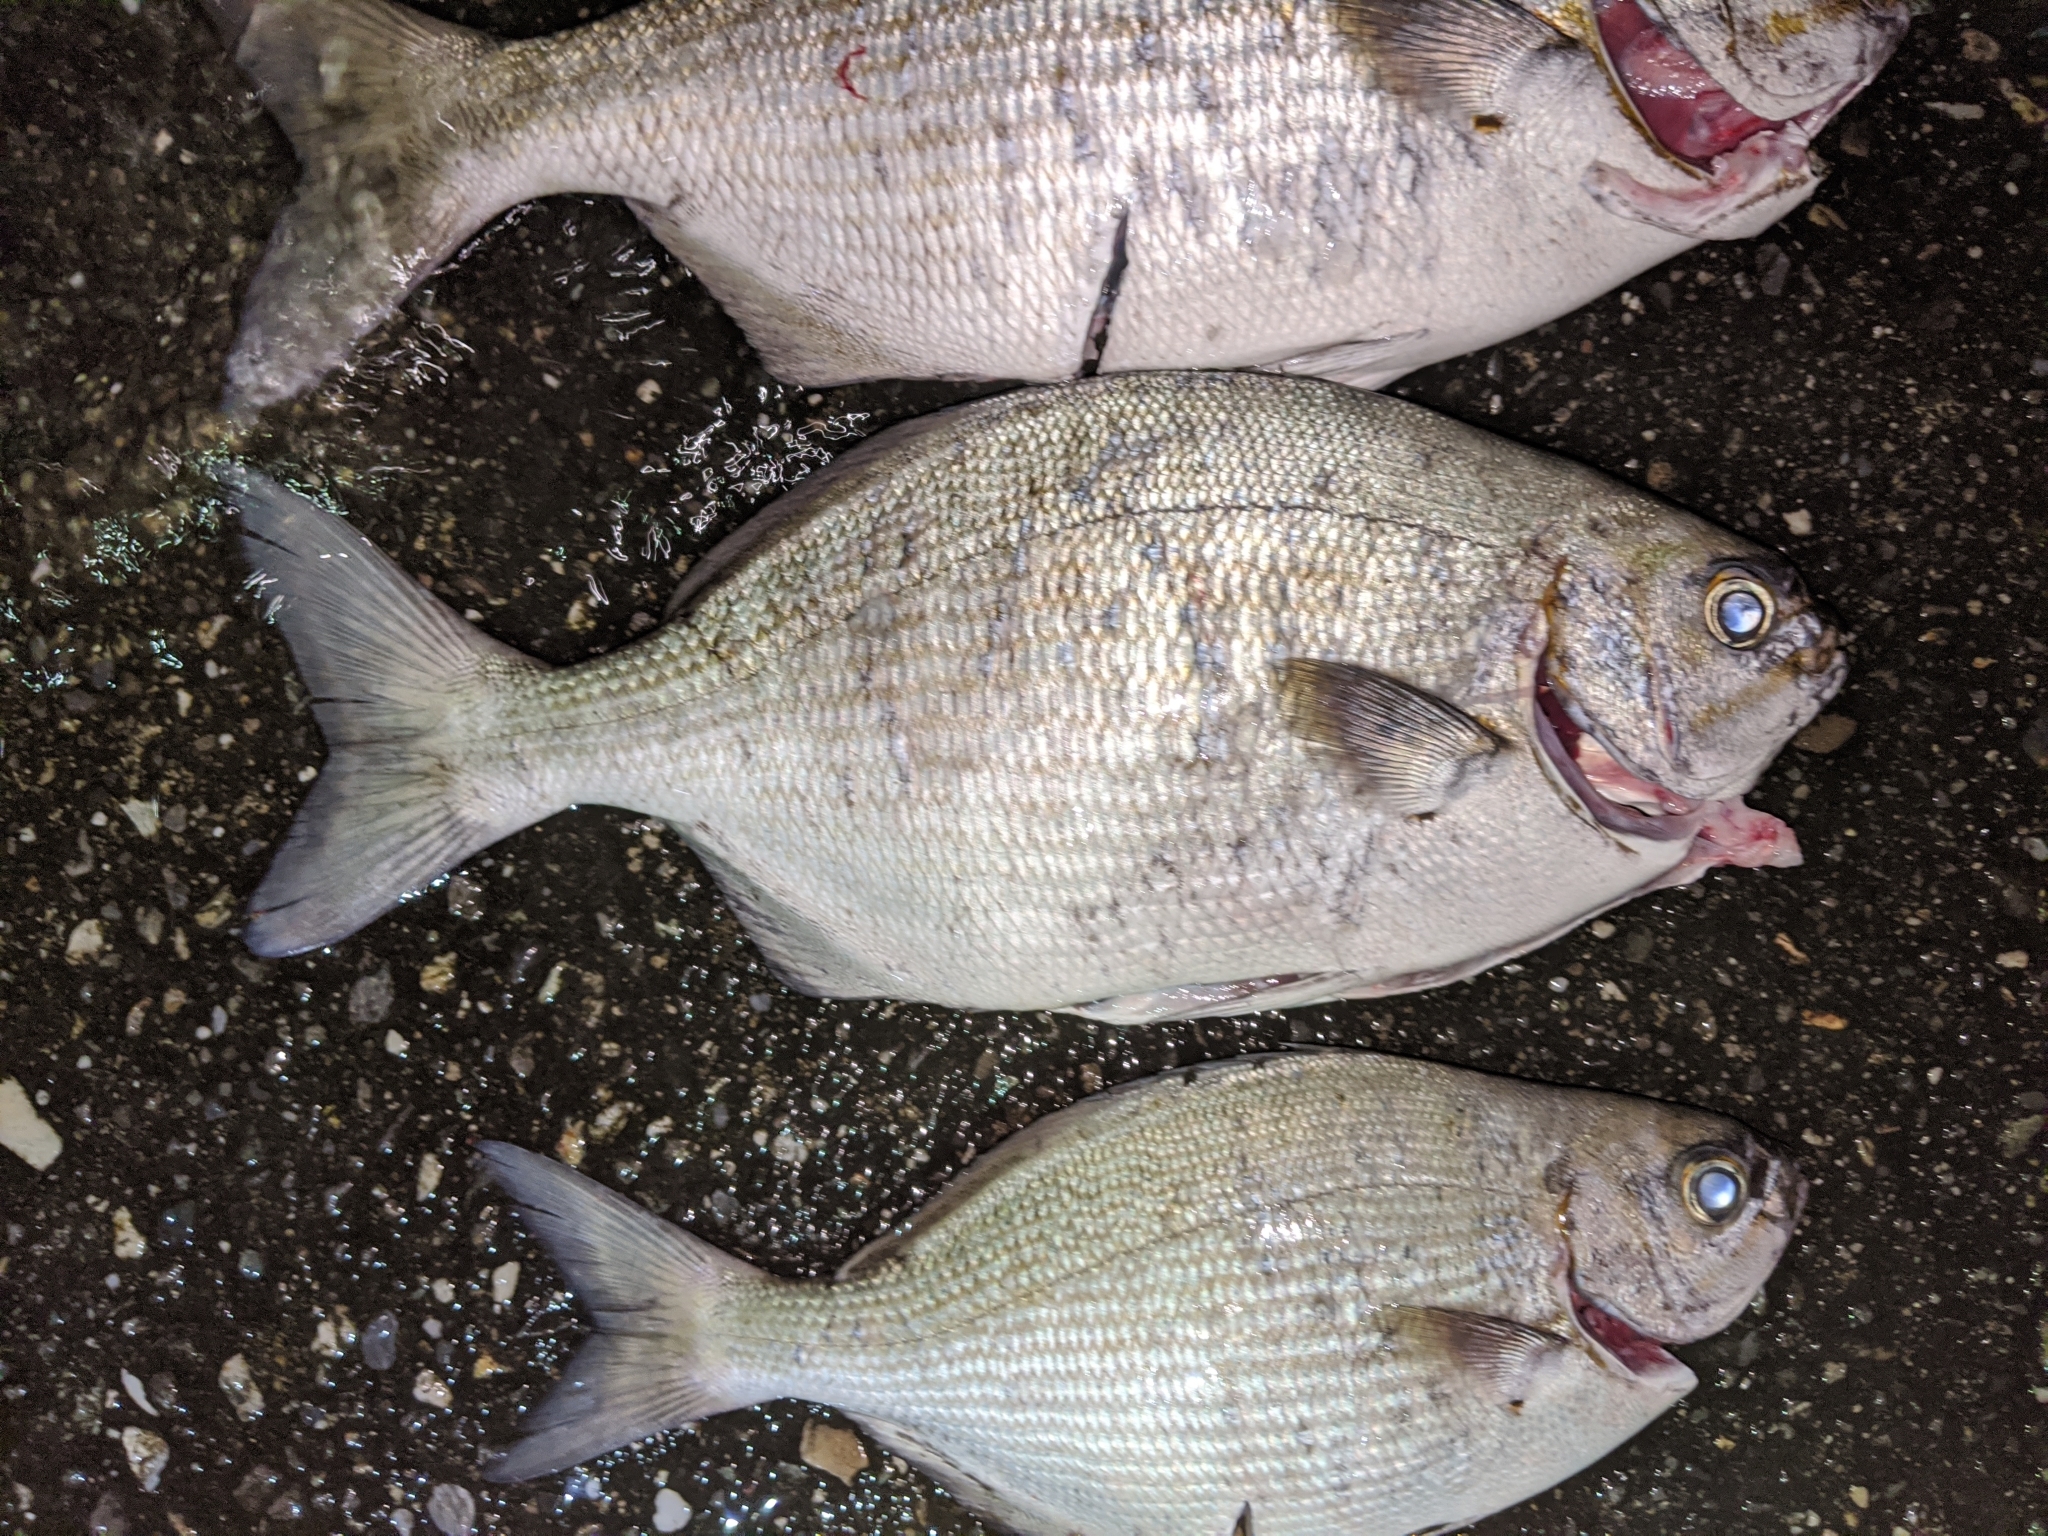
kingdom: Animalia
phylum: Chordata
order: Perciformes
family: Kyphosidae
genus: Kyphosus
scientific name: Kyphosus vaigiensis
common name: Brassy chub
